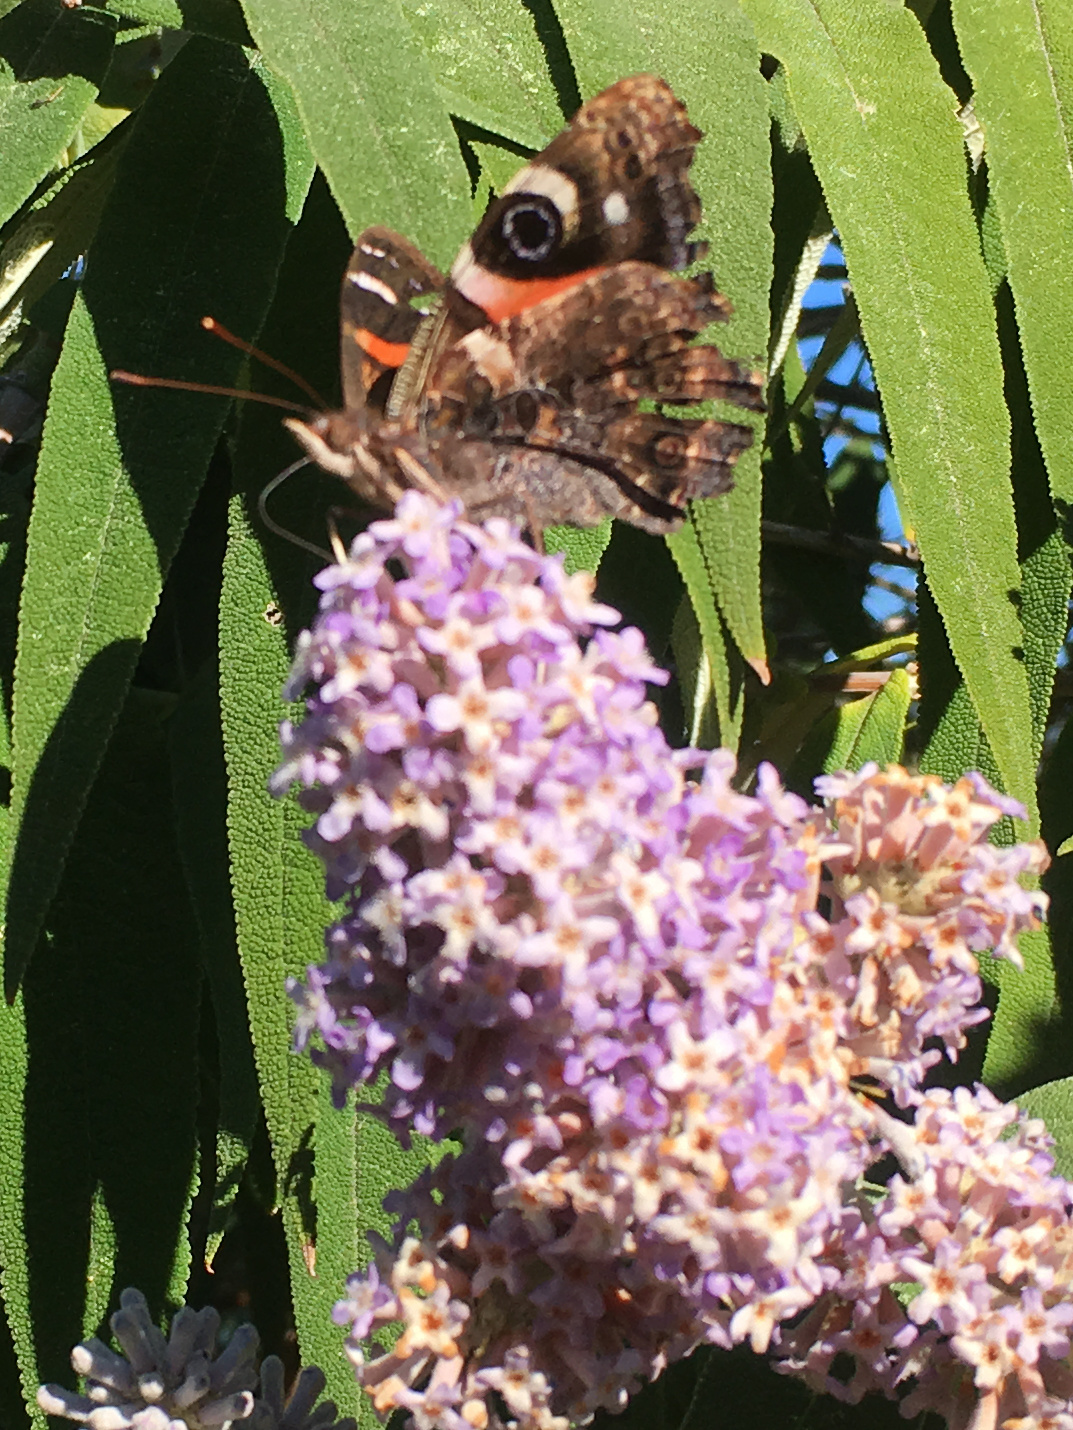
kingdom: Animalia
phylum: Arthropoda
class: Insecta
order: Lepidoptera
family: Nymphalidae
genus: Vanessa
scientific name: Vanessa gonerilla
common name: New zealand red admiral
